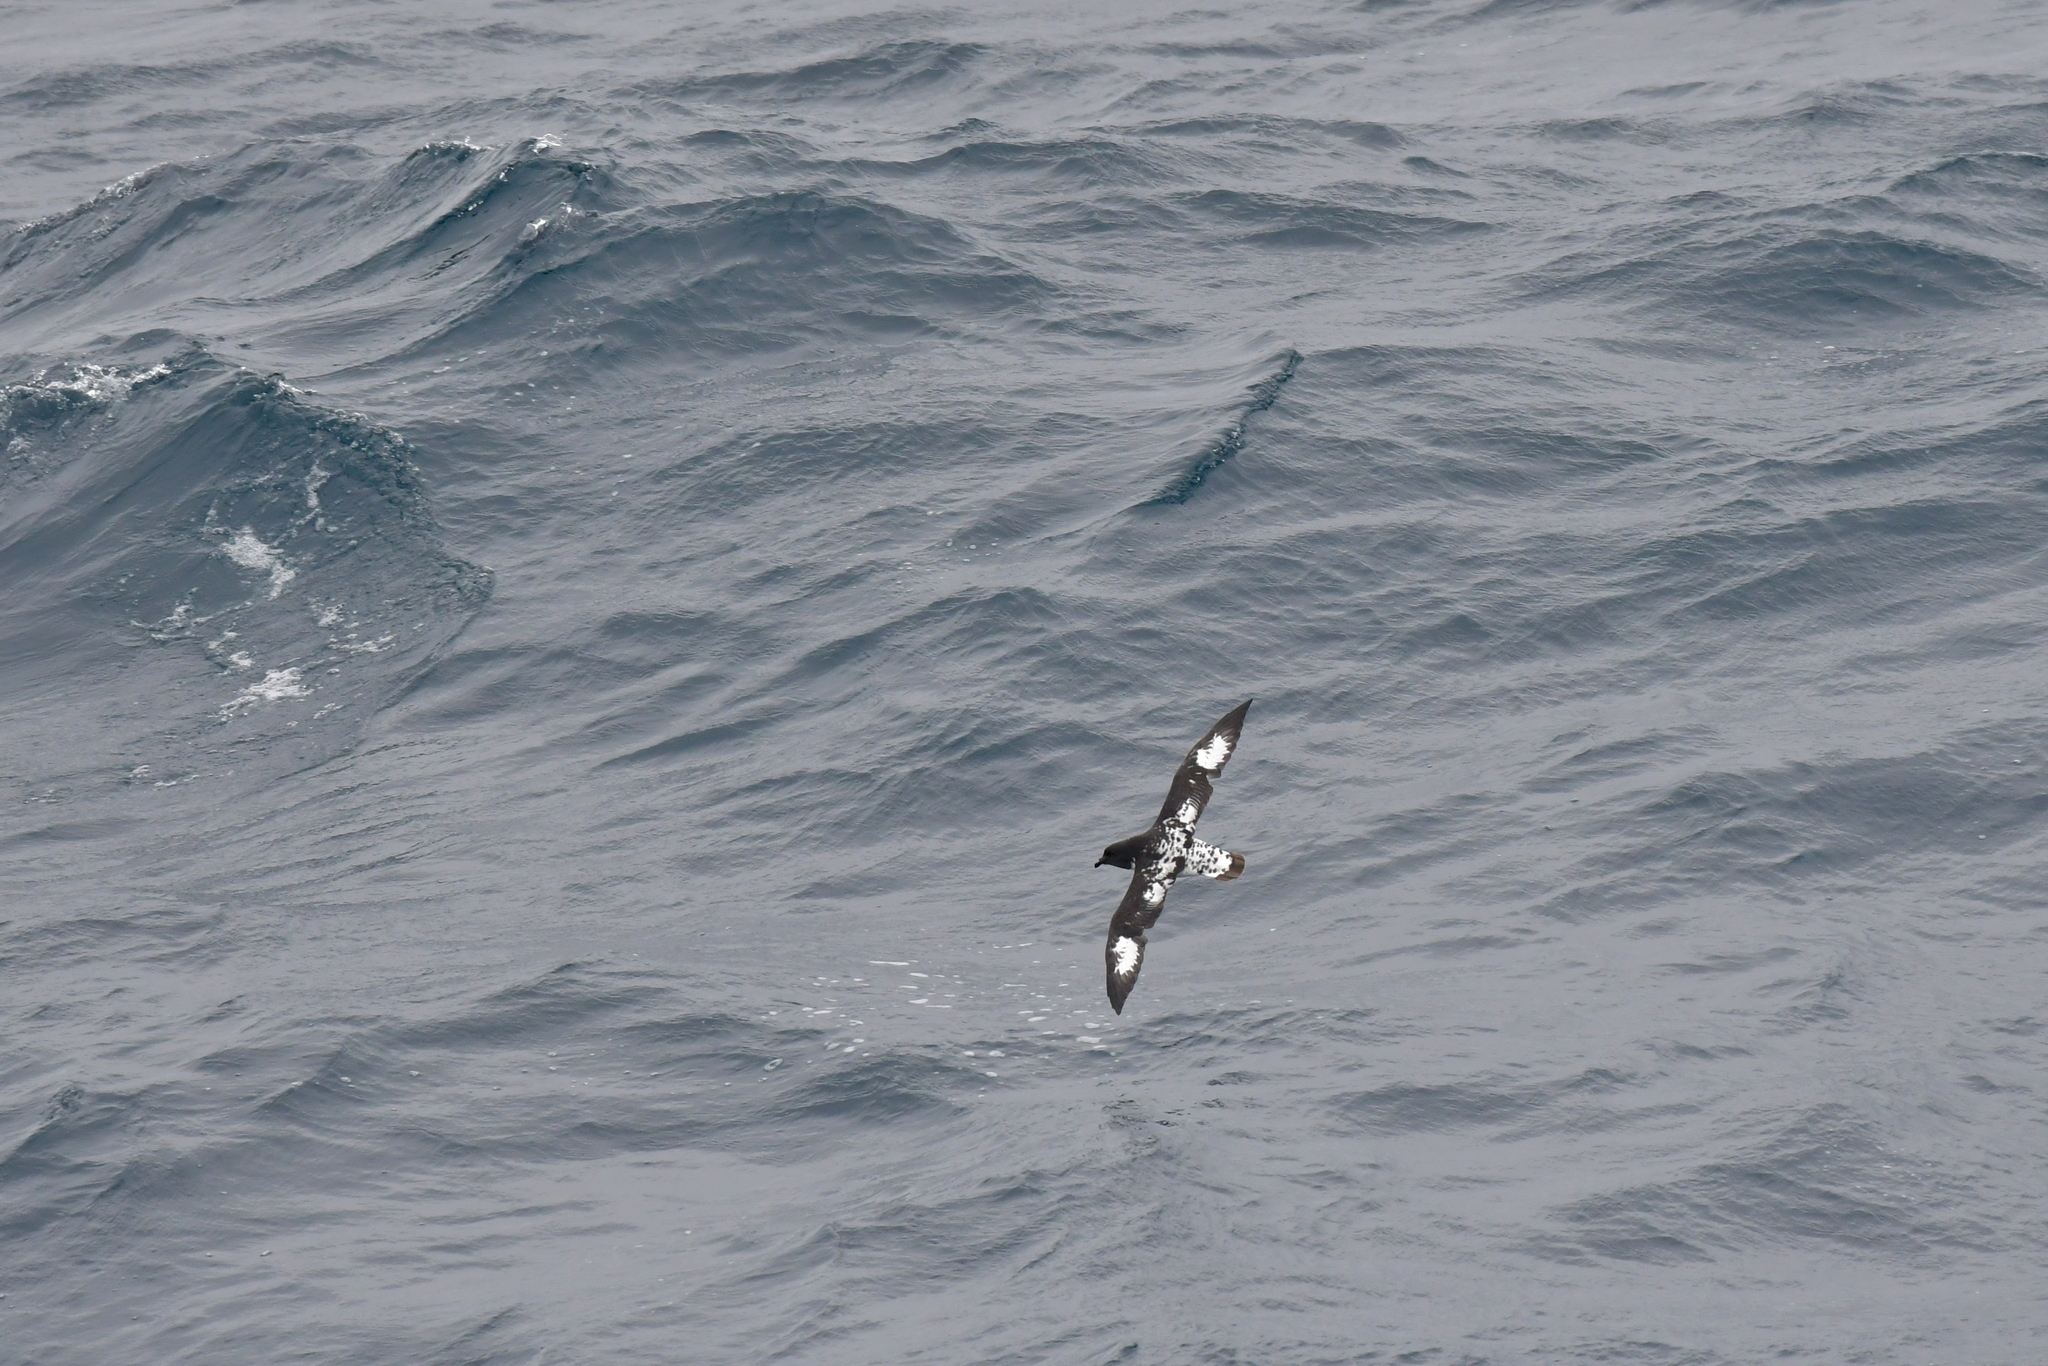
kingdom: Animalia
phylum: Chordata
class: Aves
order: Procellariiformes
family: Procellariidae
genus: Daption
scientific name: Daption capense
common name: Cape petrel
